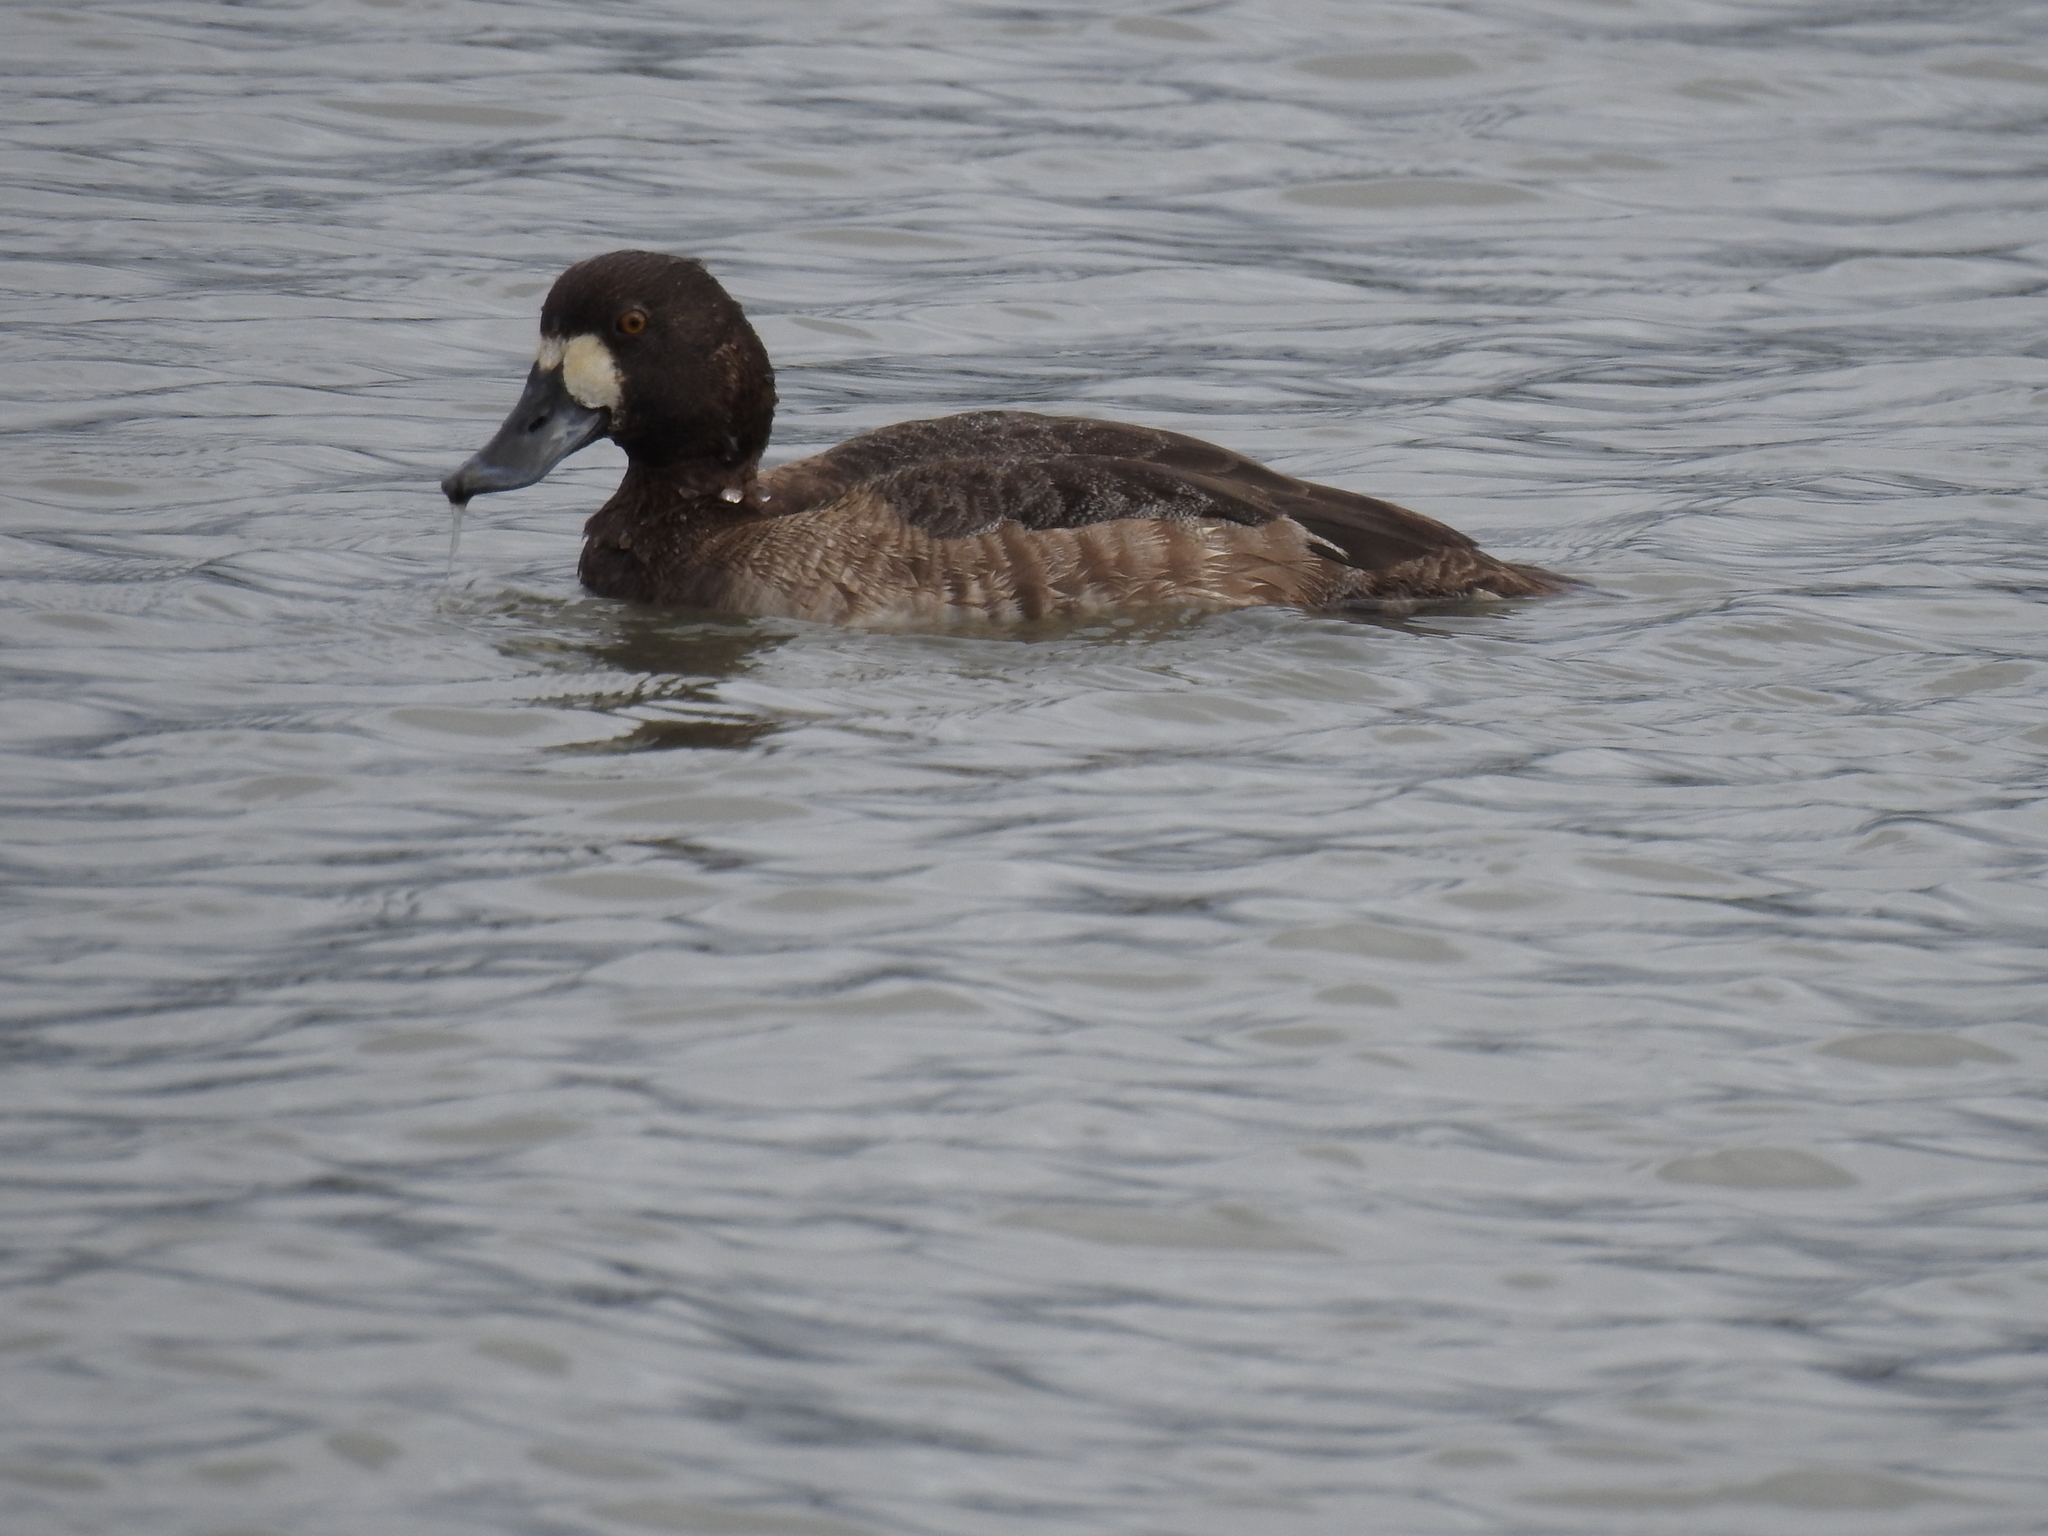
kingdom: Animalia
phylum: Chordata
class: Aves
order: Anseriformes
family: Anatidae
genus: Aythya
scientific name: Aythya marila
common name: Greater scaup
